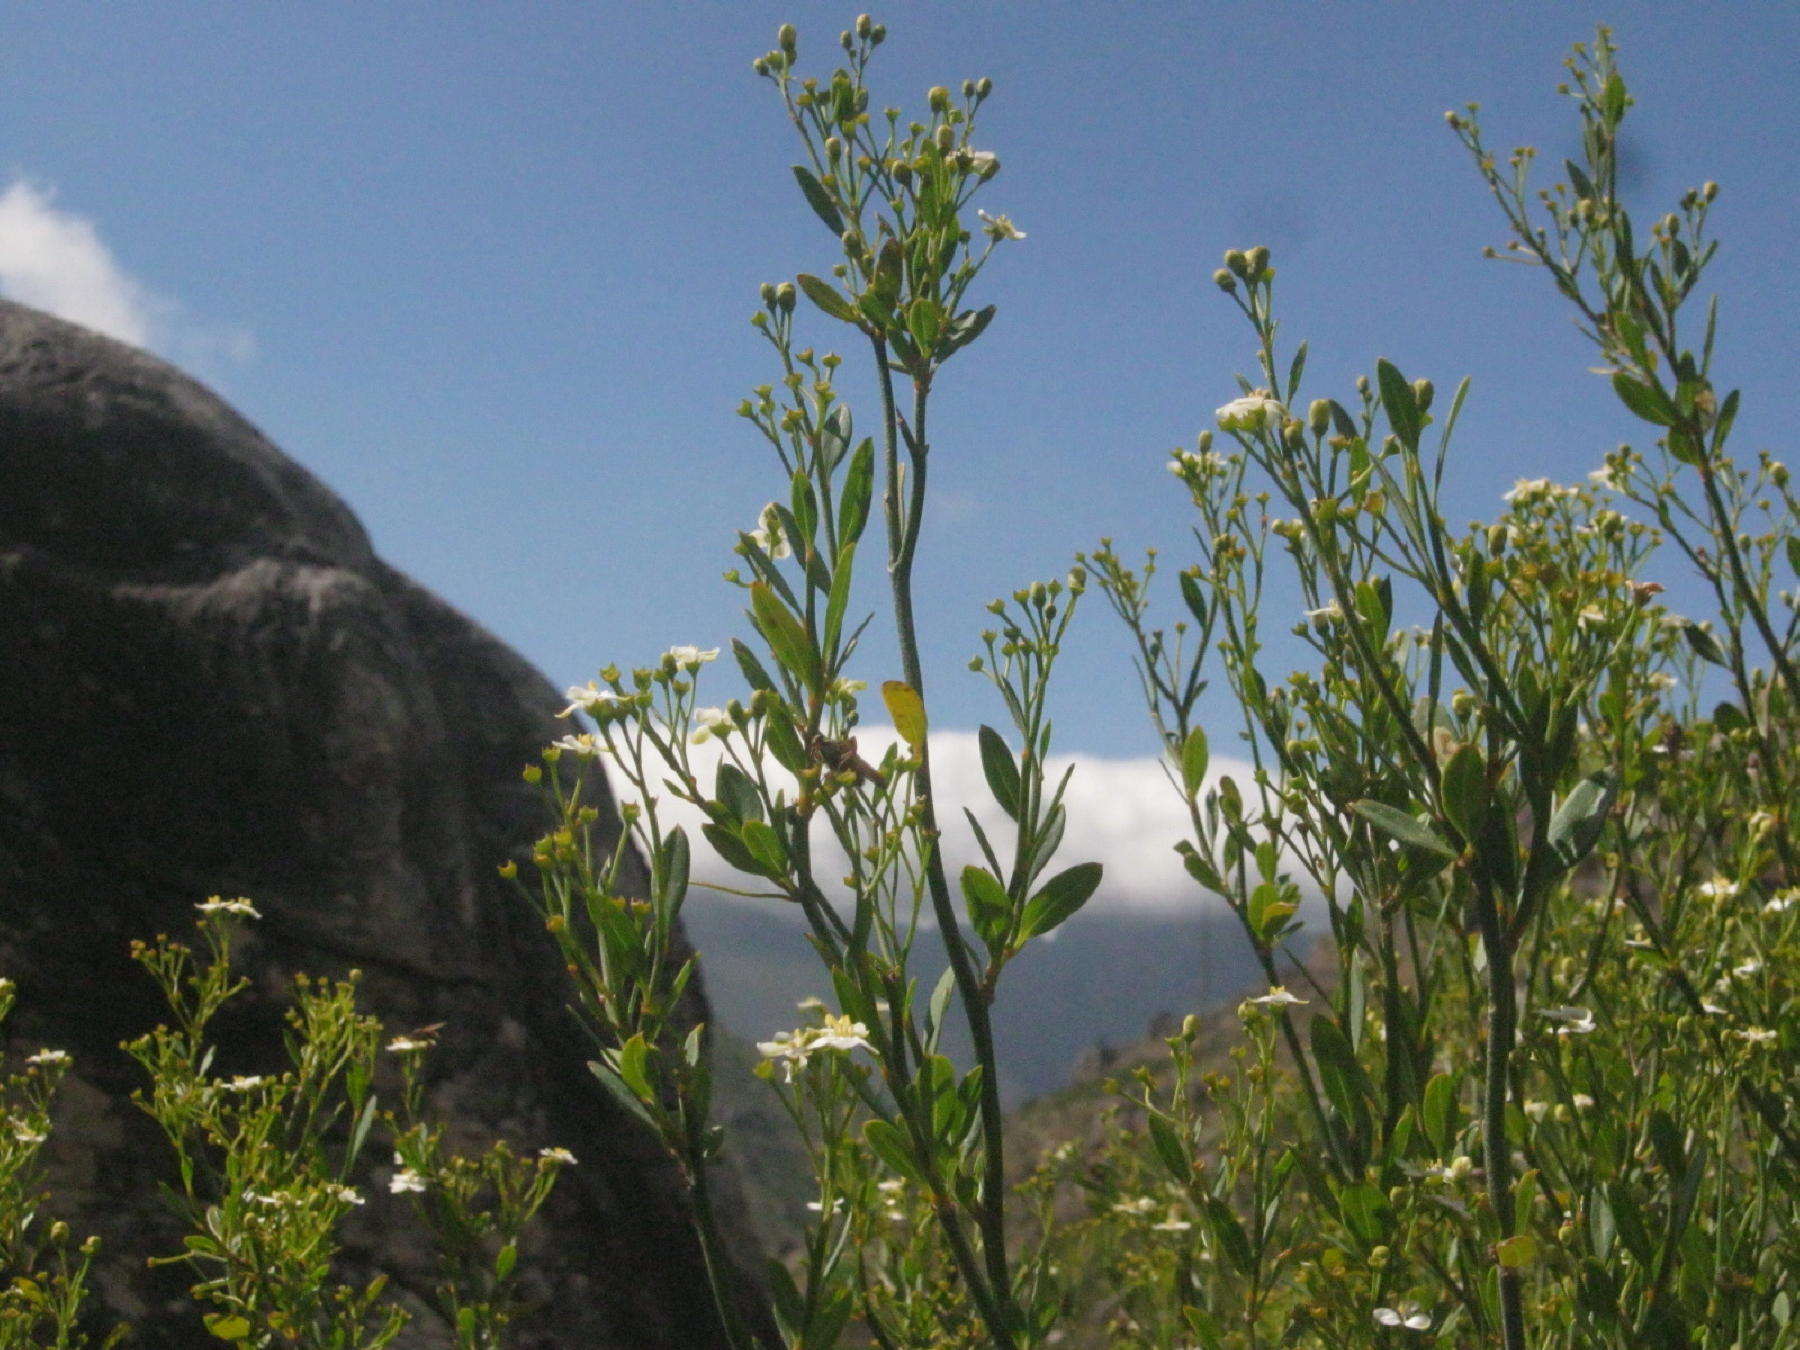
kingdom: Plantae
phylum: Tracheophyta
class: Magnoliopsida
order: Solanales
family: Montiniaceae
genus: Montinia
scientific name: Montinia caryophyllacea
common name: Wild clove-bush
